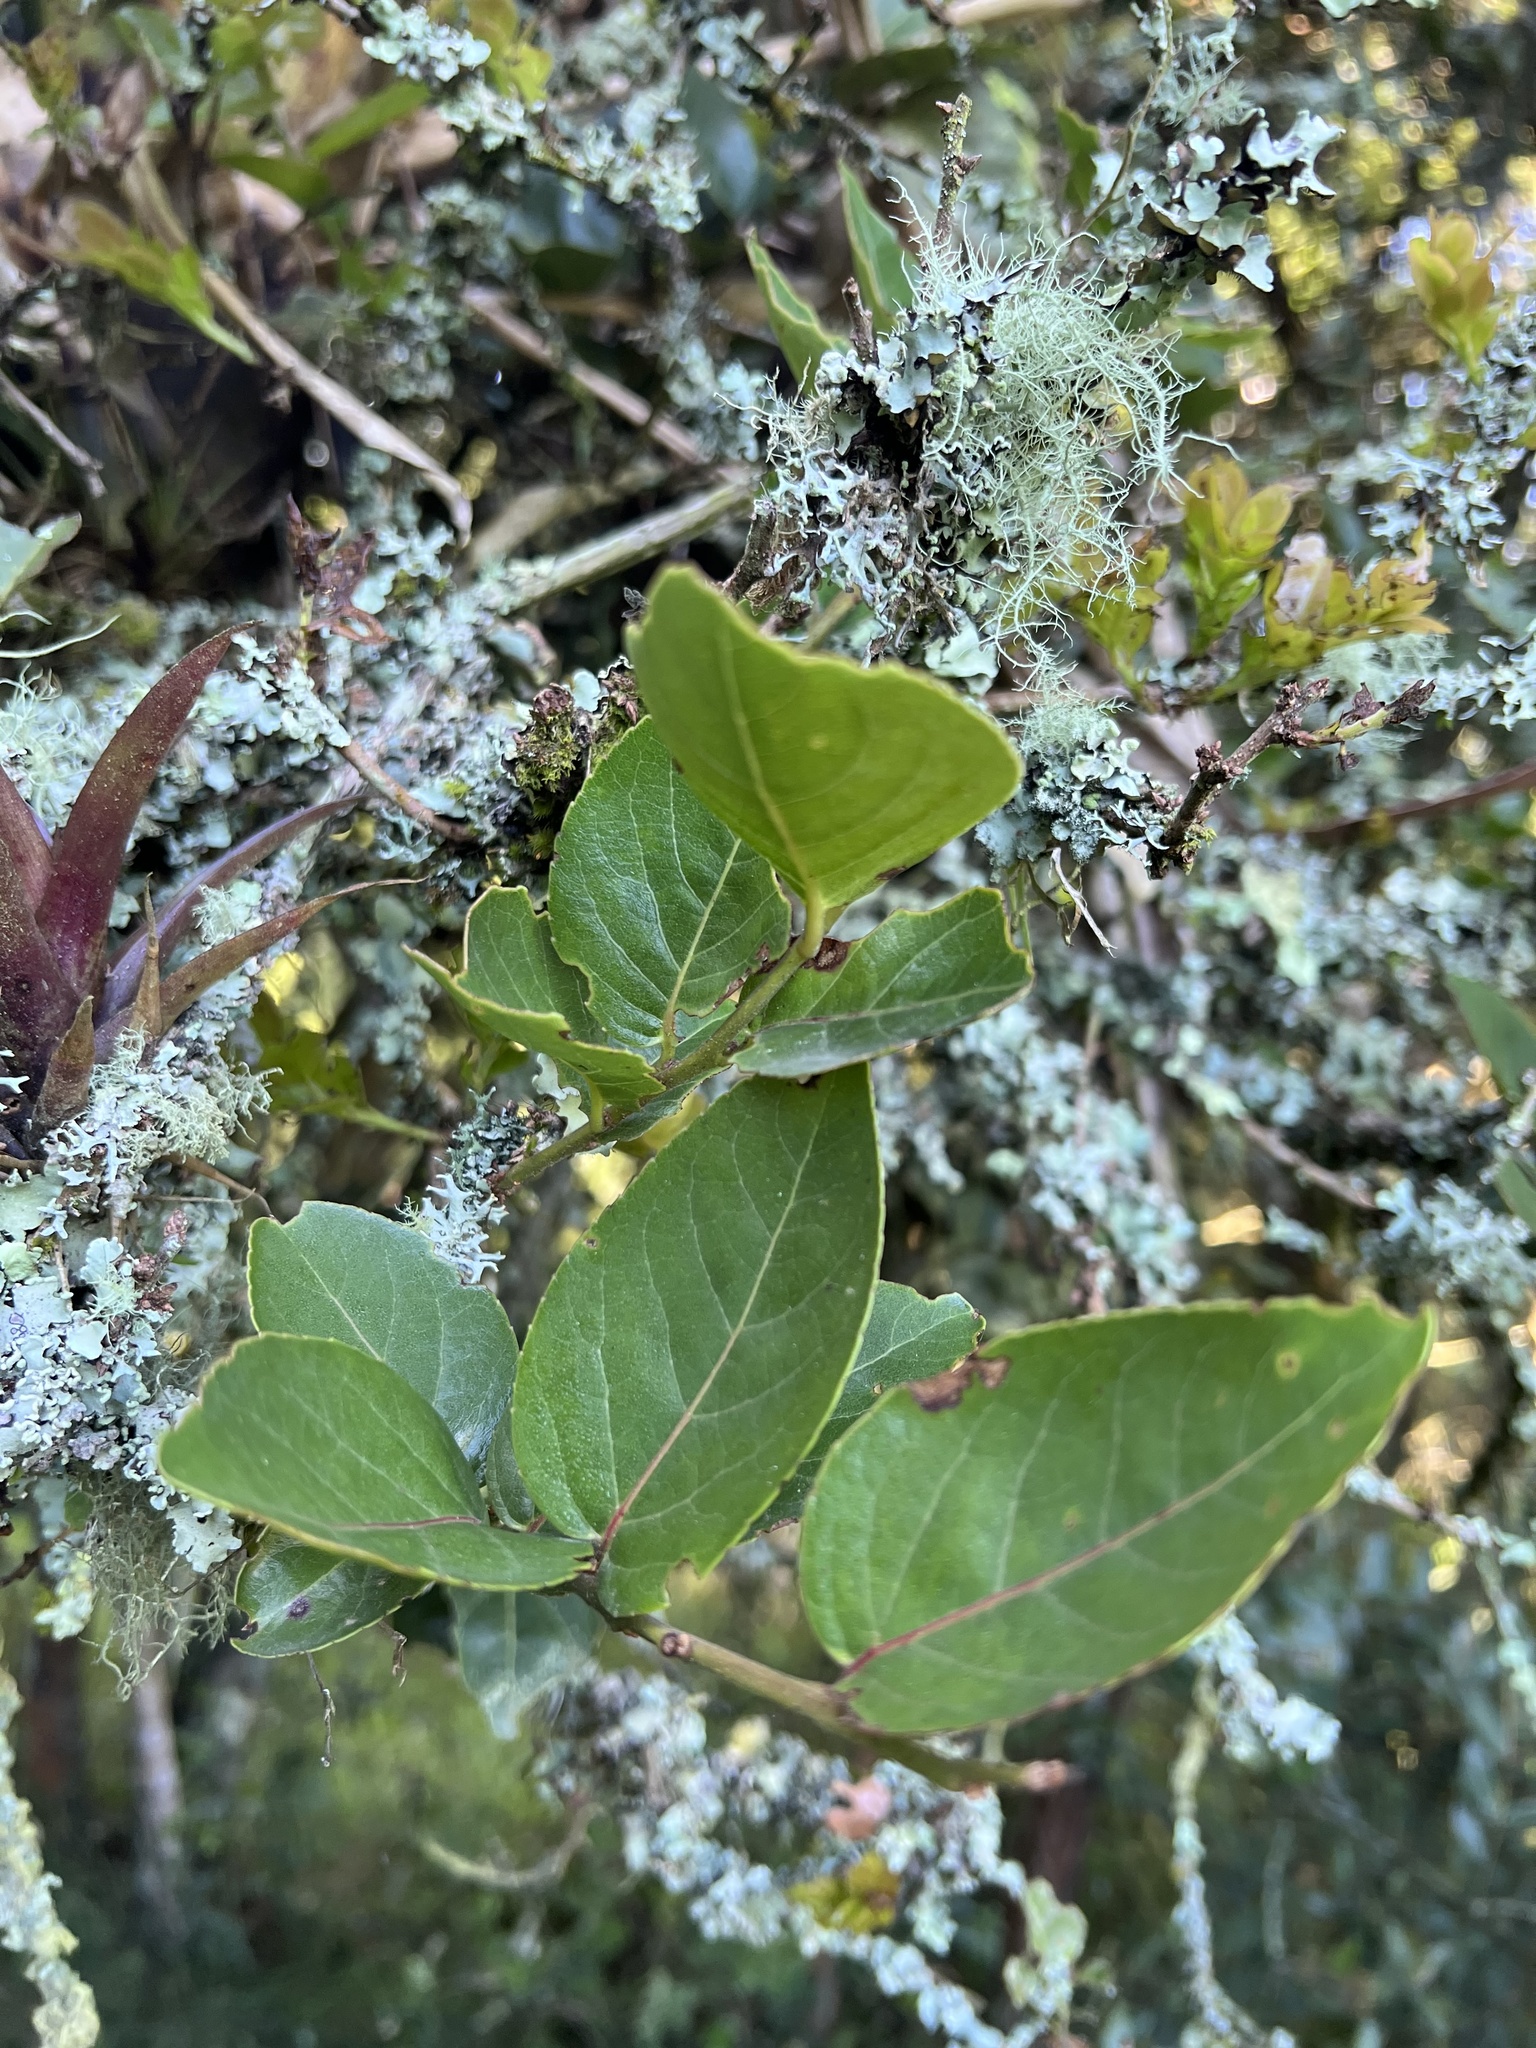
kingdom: Plantae
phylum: Tracheophyta
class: Magnoliopsida
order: Malpighiales
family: Salicaceae
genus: Xylosma
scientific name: Xylosma spiculifera
